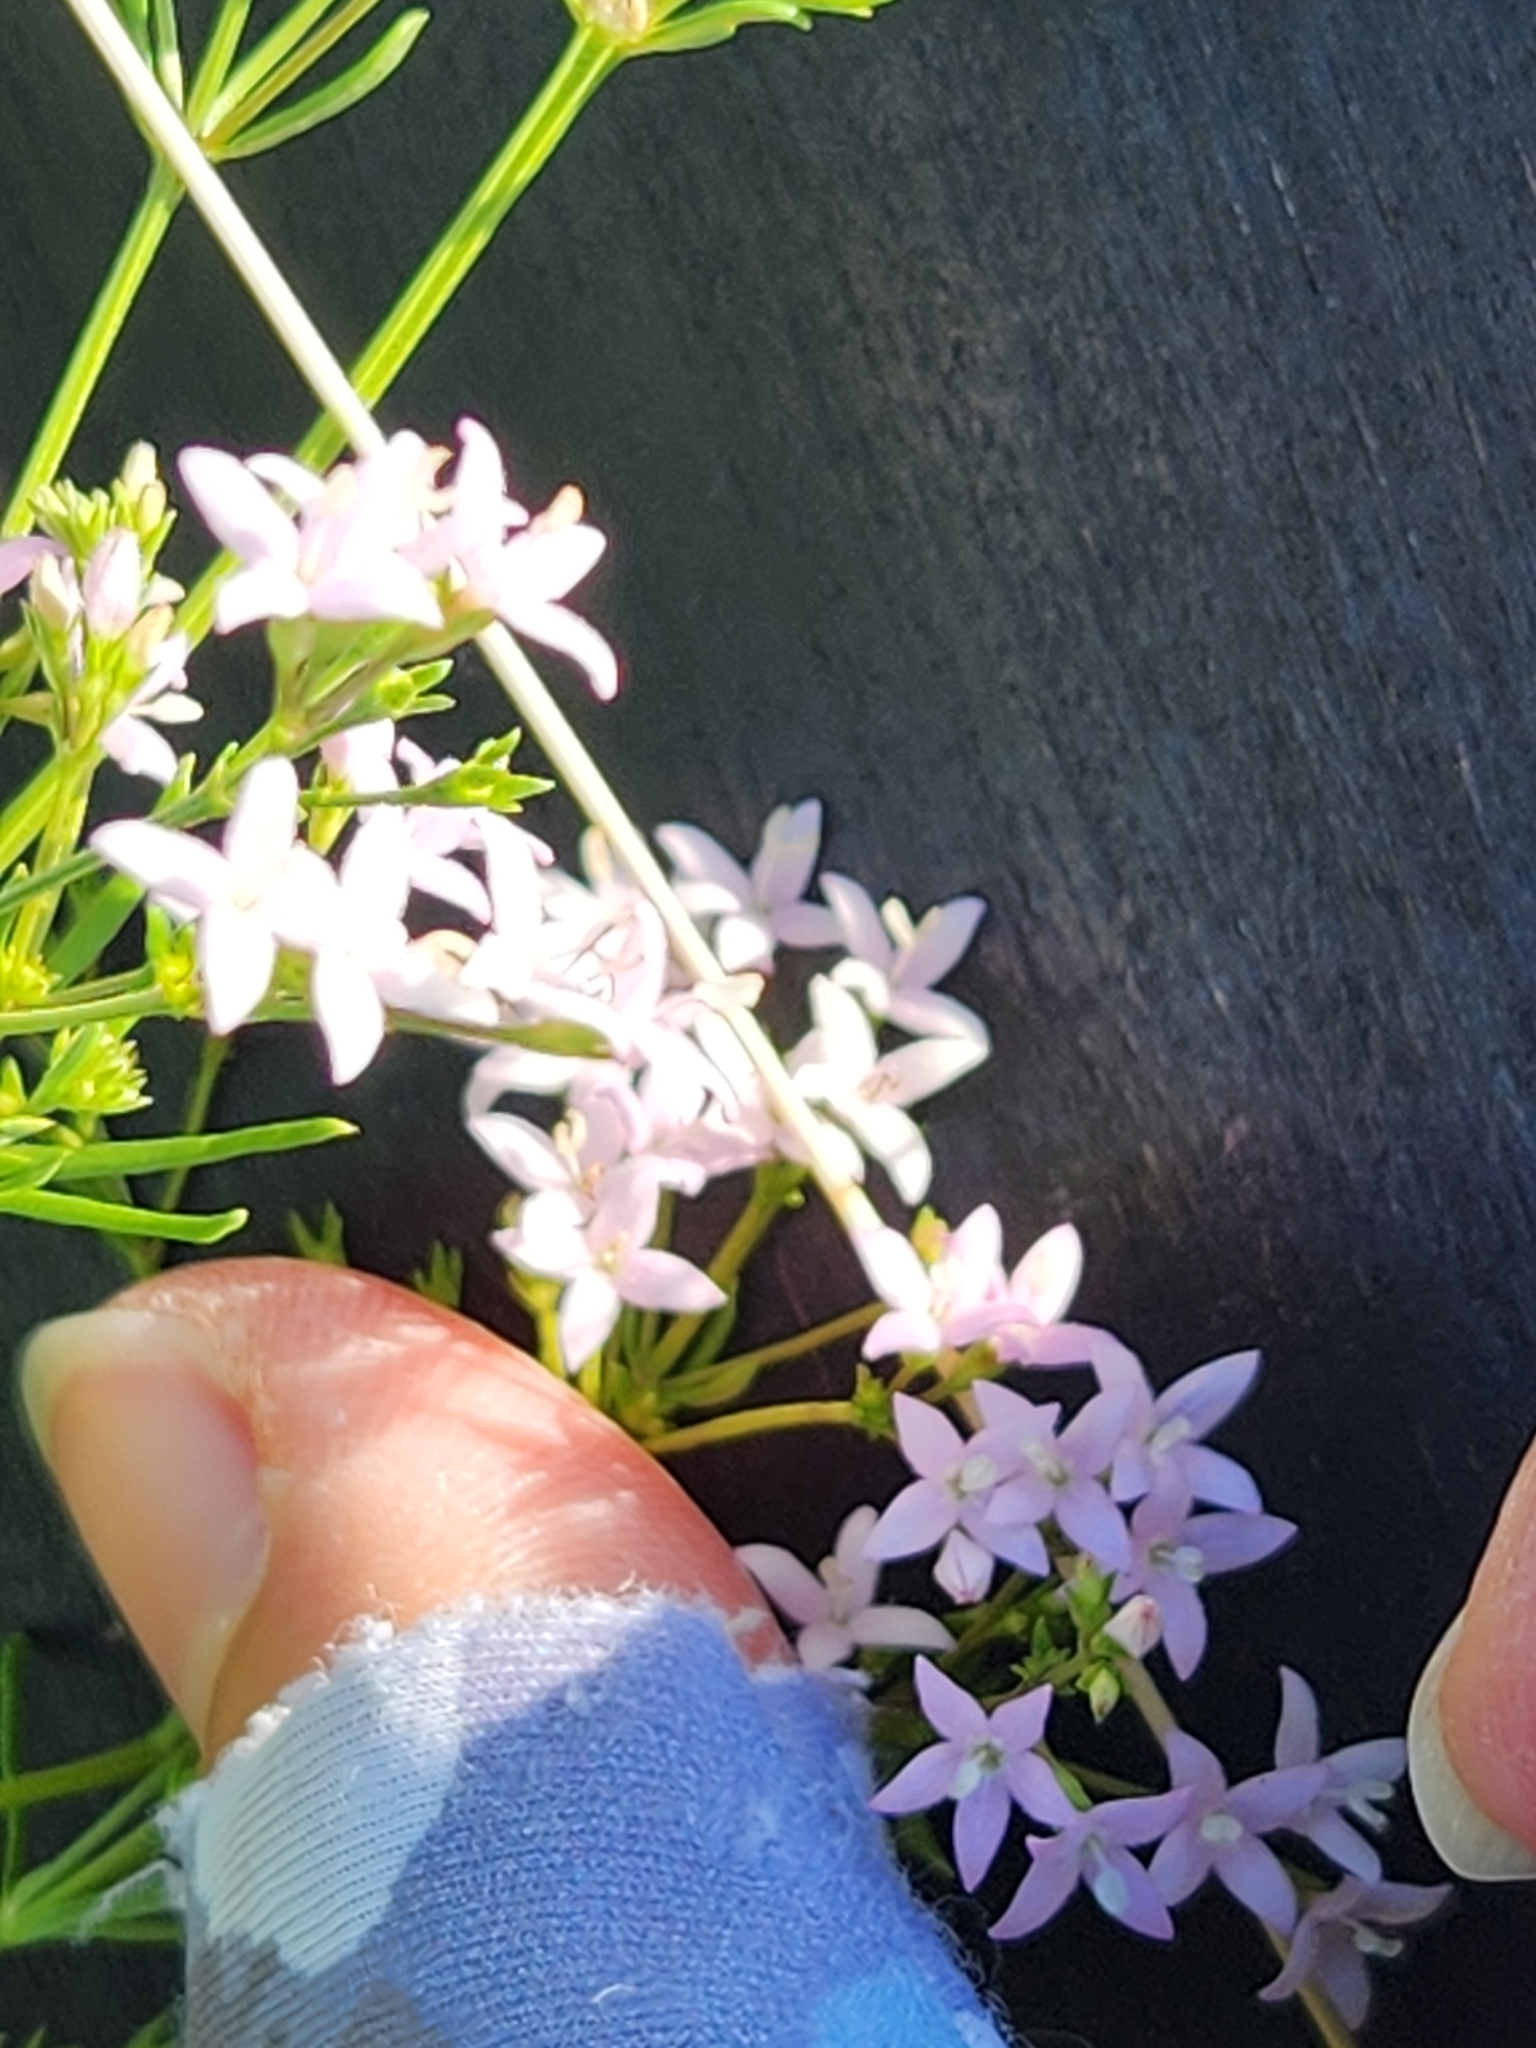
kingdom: Plantae
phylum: Tracheophyta
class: Magnoliopsida
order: Gentianales
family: Rubiaceae
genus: Stenaria
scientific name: Stenaria nigricans
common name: Diamondflowers
